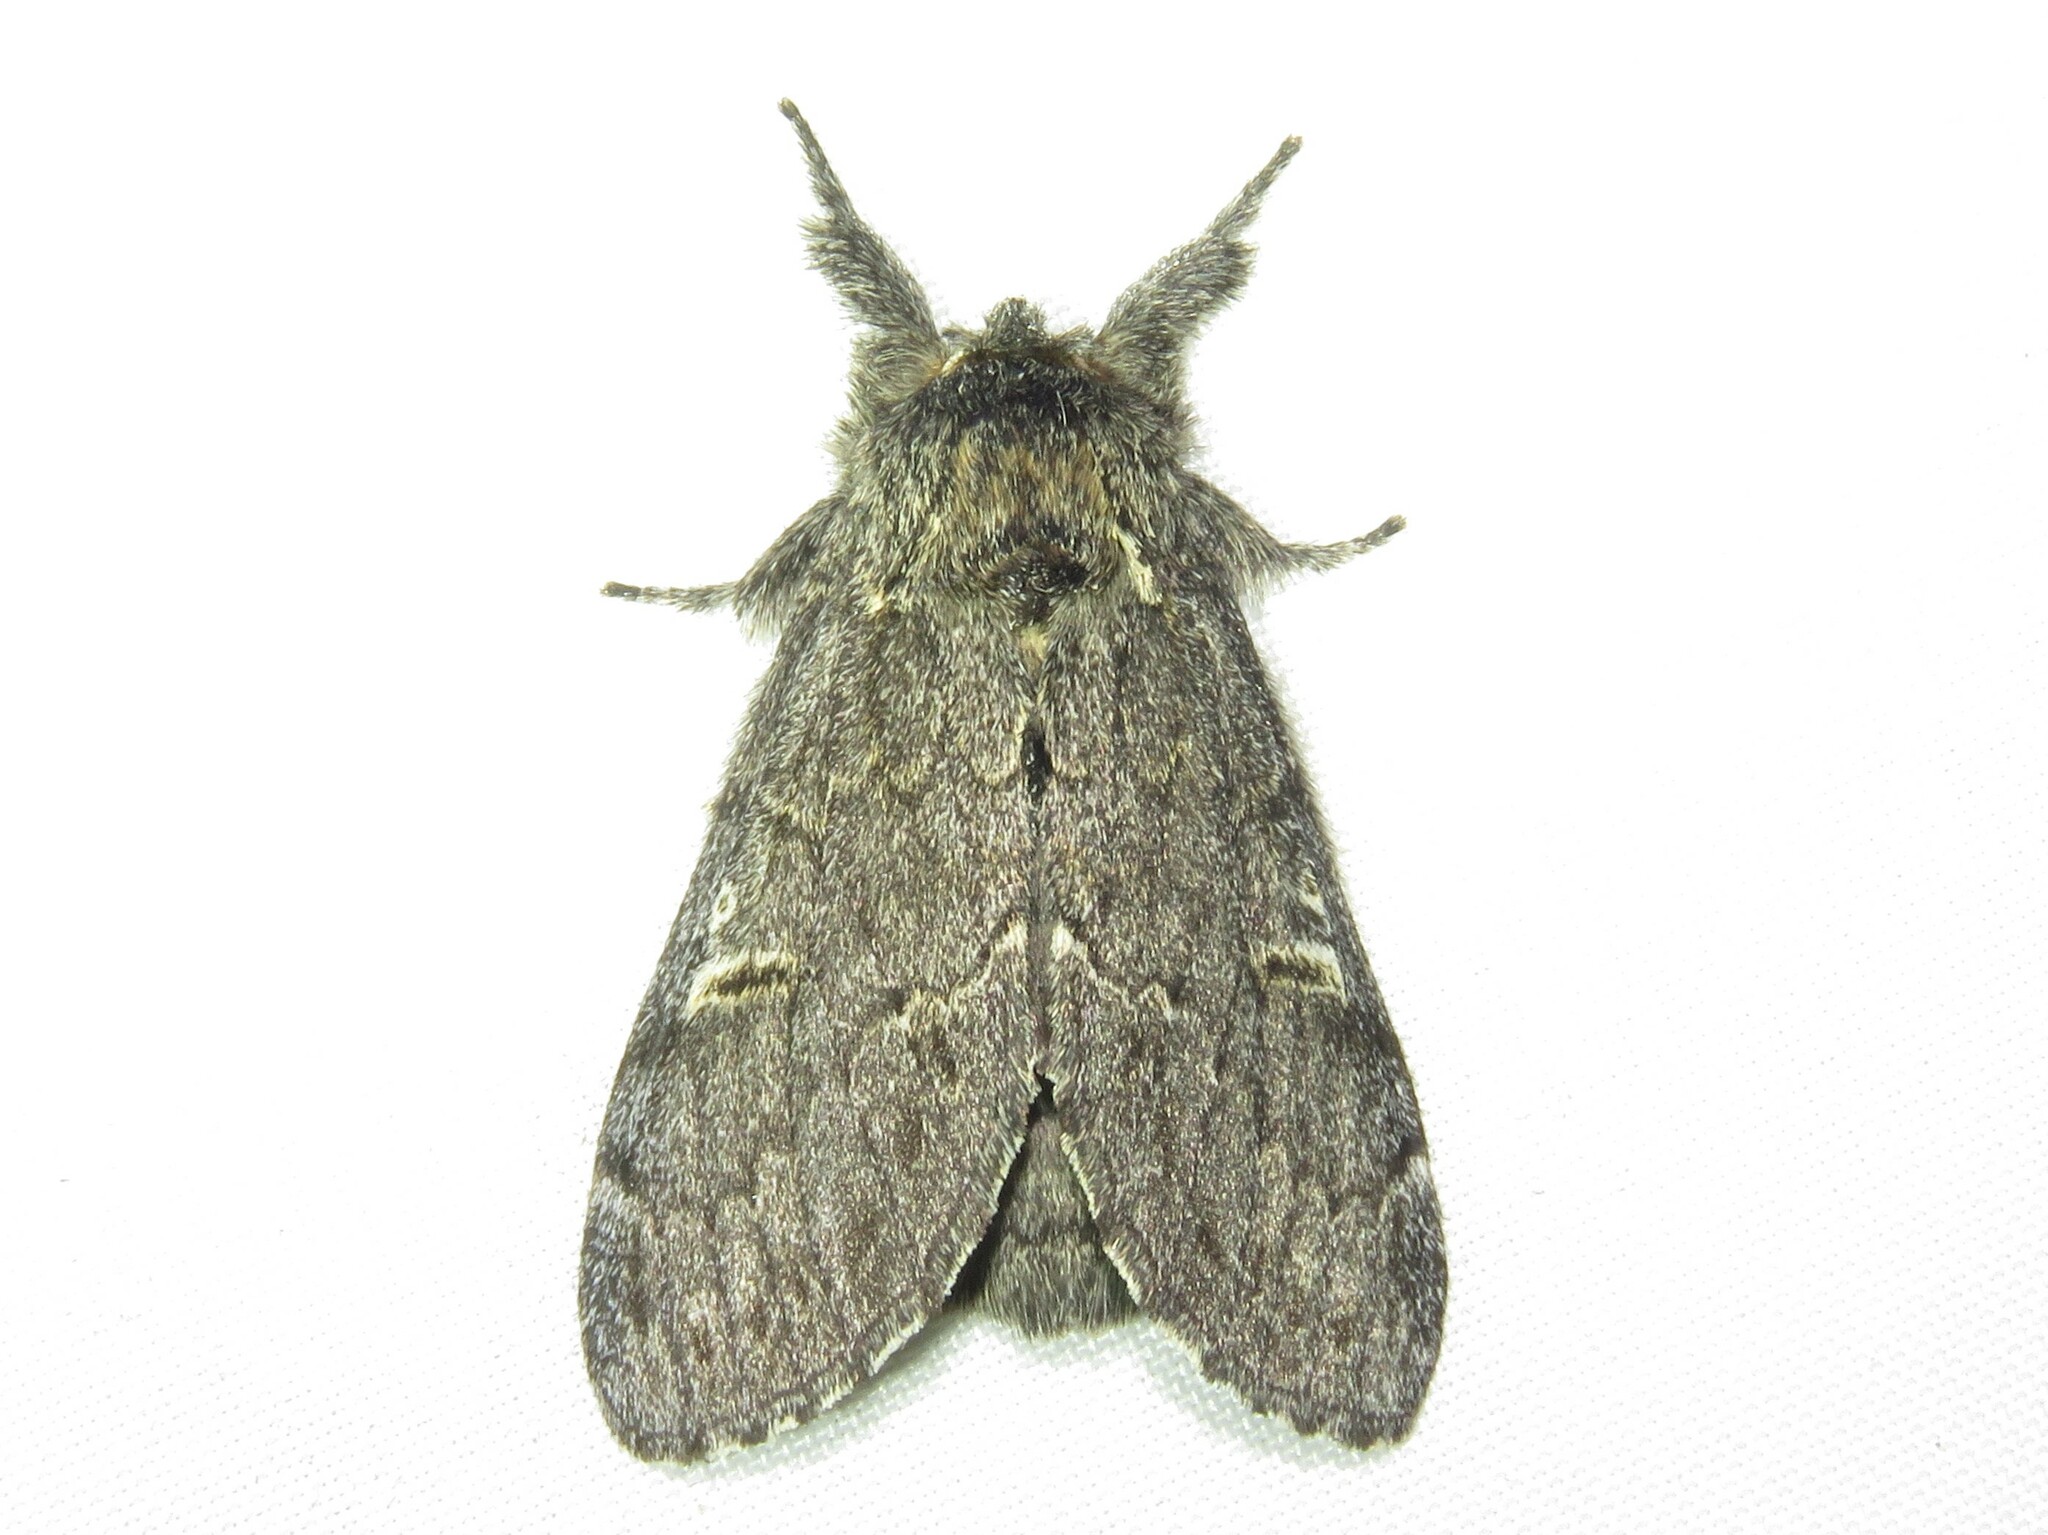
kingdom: Animalia
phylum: Arthropoda
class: Insecta
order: Lepidoptera
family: Notodontidae
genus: Notodonta
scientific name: Notodonta torva
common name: Large dark prominent
